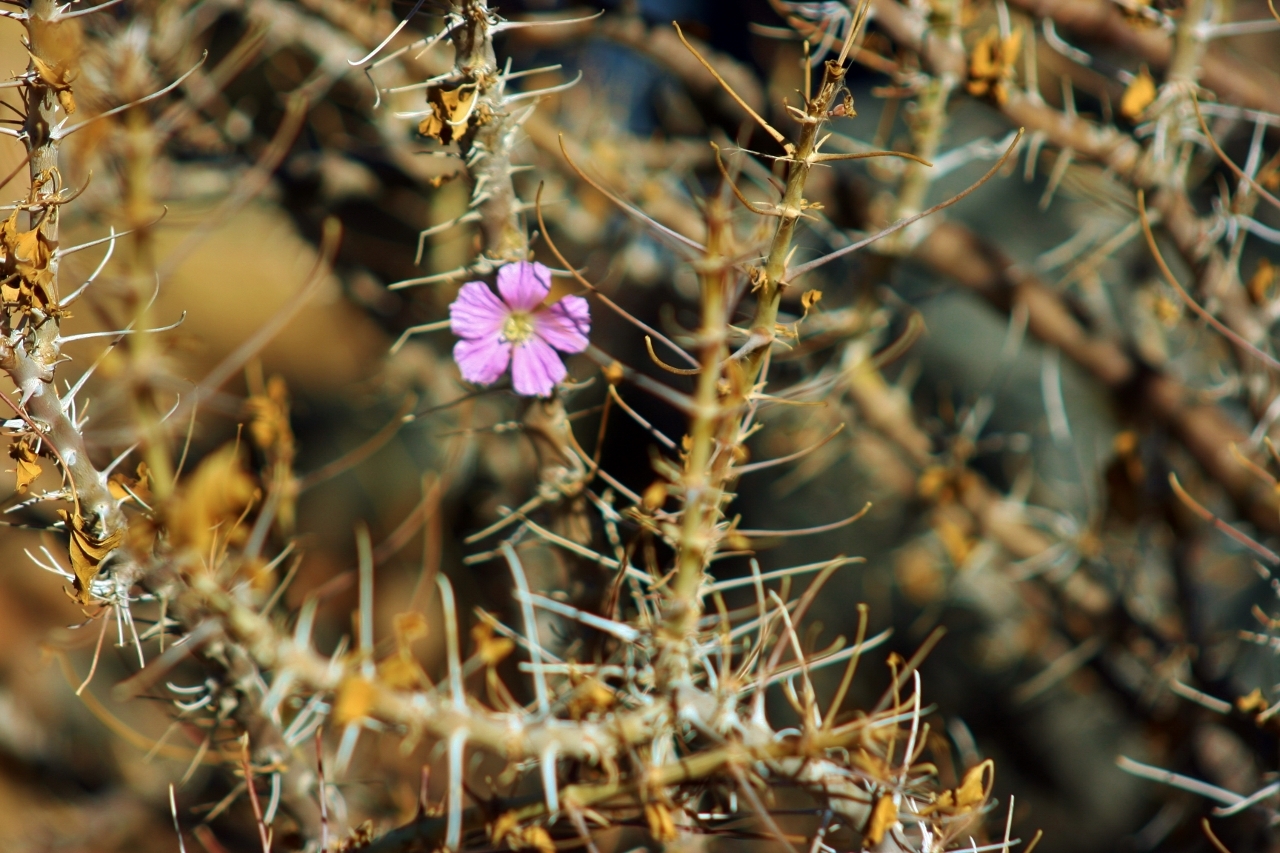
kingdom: Plantae
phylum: Tracheophyta
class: Magnoliopsida
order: Geraniales
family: Geraniaceae
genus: Monsonia
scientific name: Monsonia marlothii
